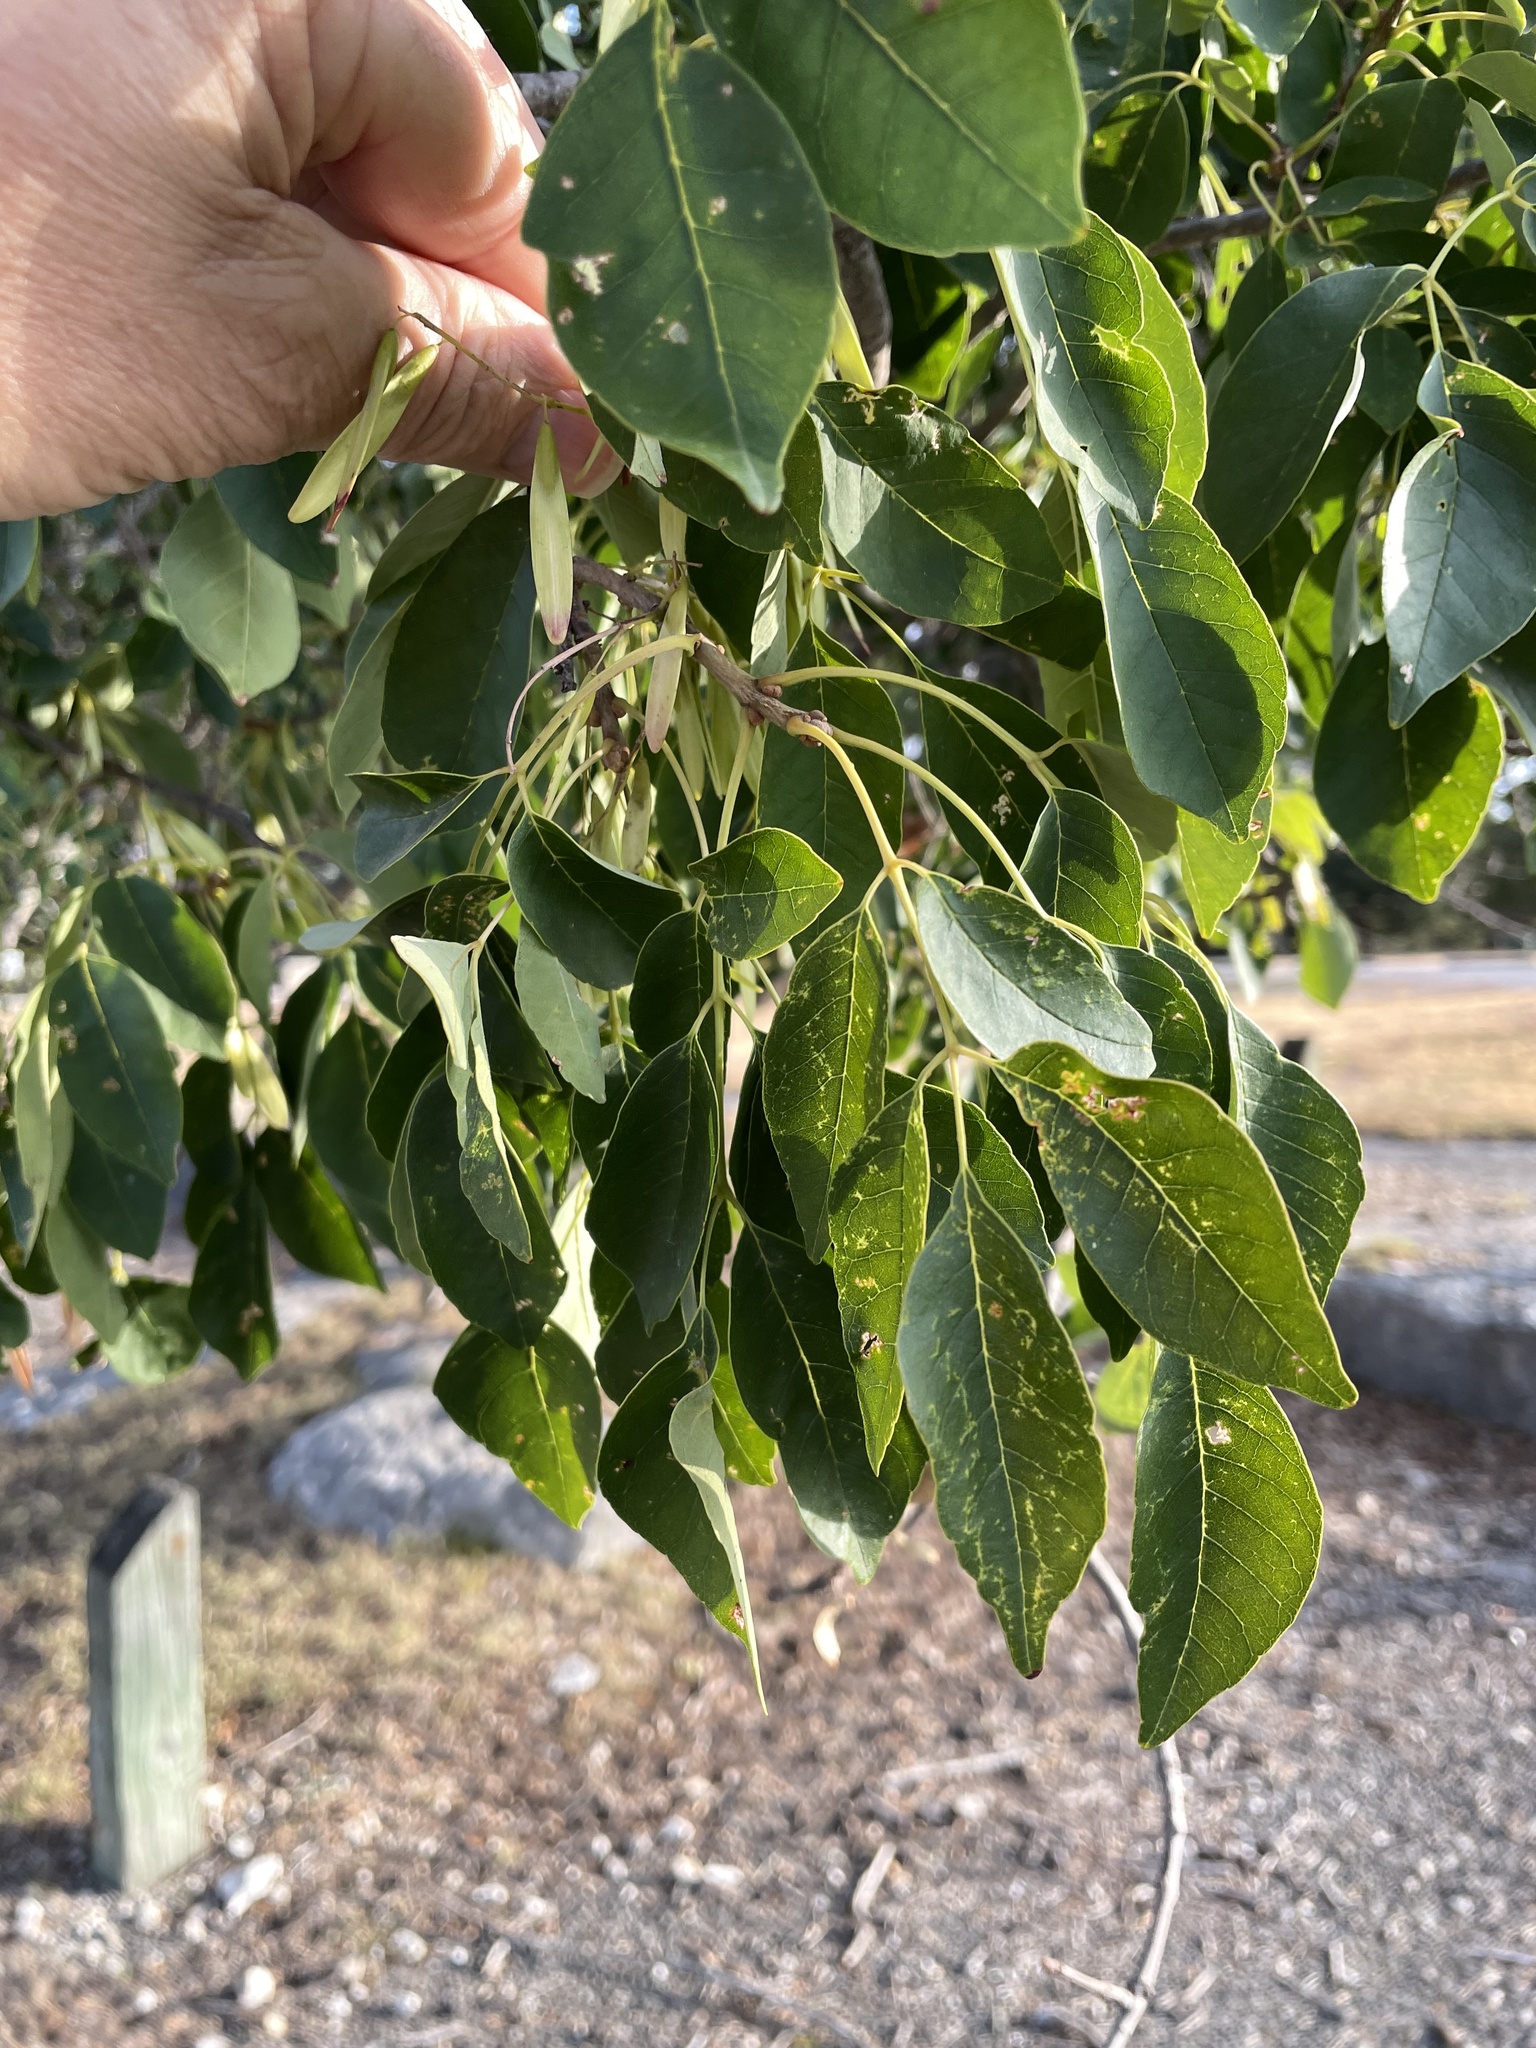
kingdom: Plantae
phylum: Tracheophyta
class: Magnoliopsida
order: Lamiales
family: Oleaceae
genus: Fraxinus
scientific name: Fraxinus albicans
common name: Texas ash
